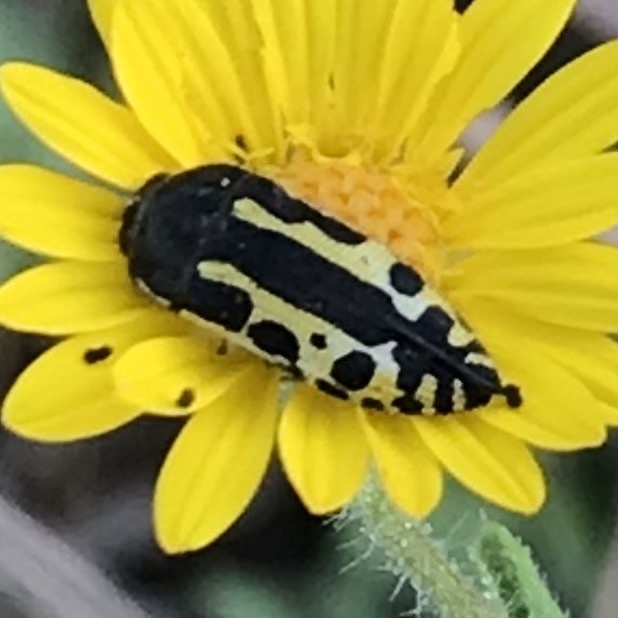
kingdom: Animalia
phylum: Arthropoda
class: Insecta
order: Coleoptera
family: Buprestidae
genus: Acmaeodera
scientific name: Acmaeodera scalaris
